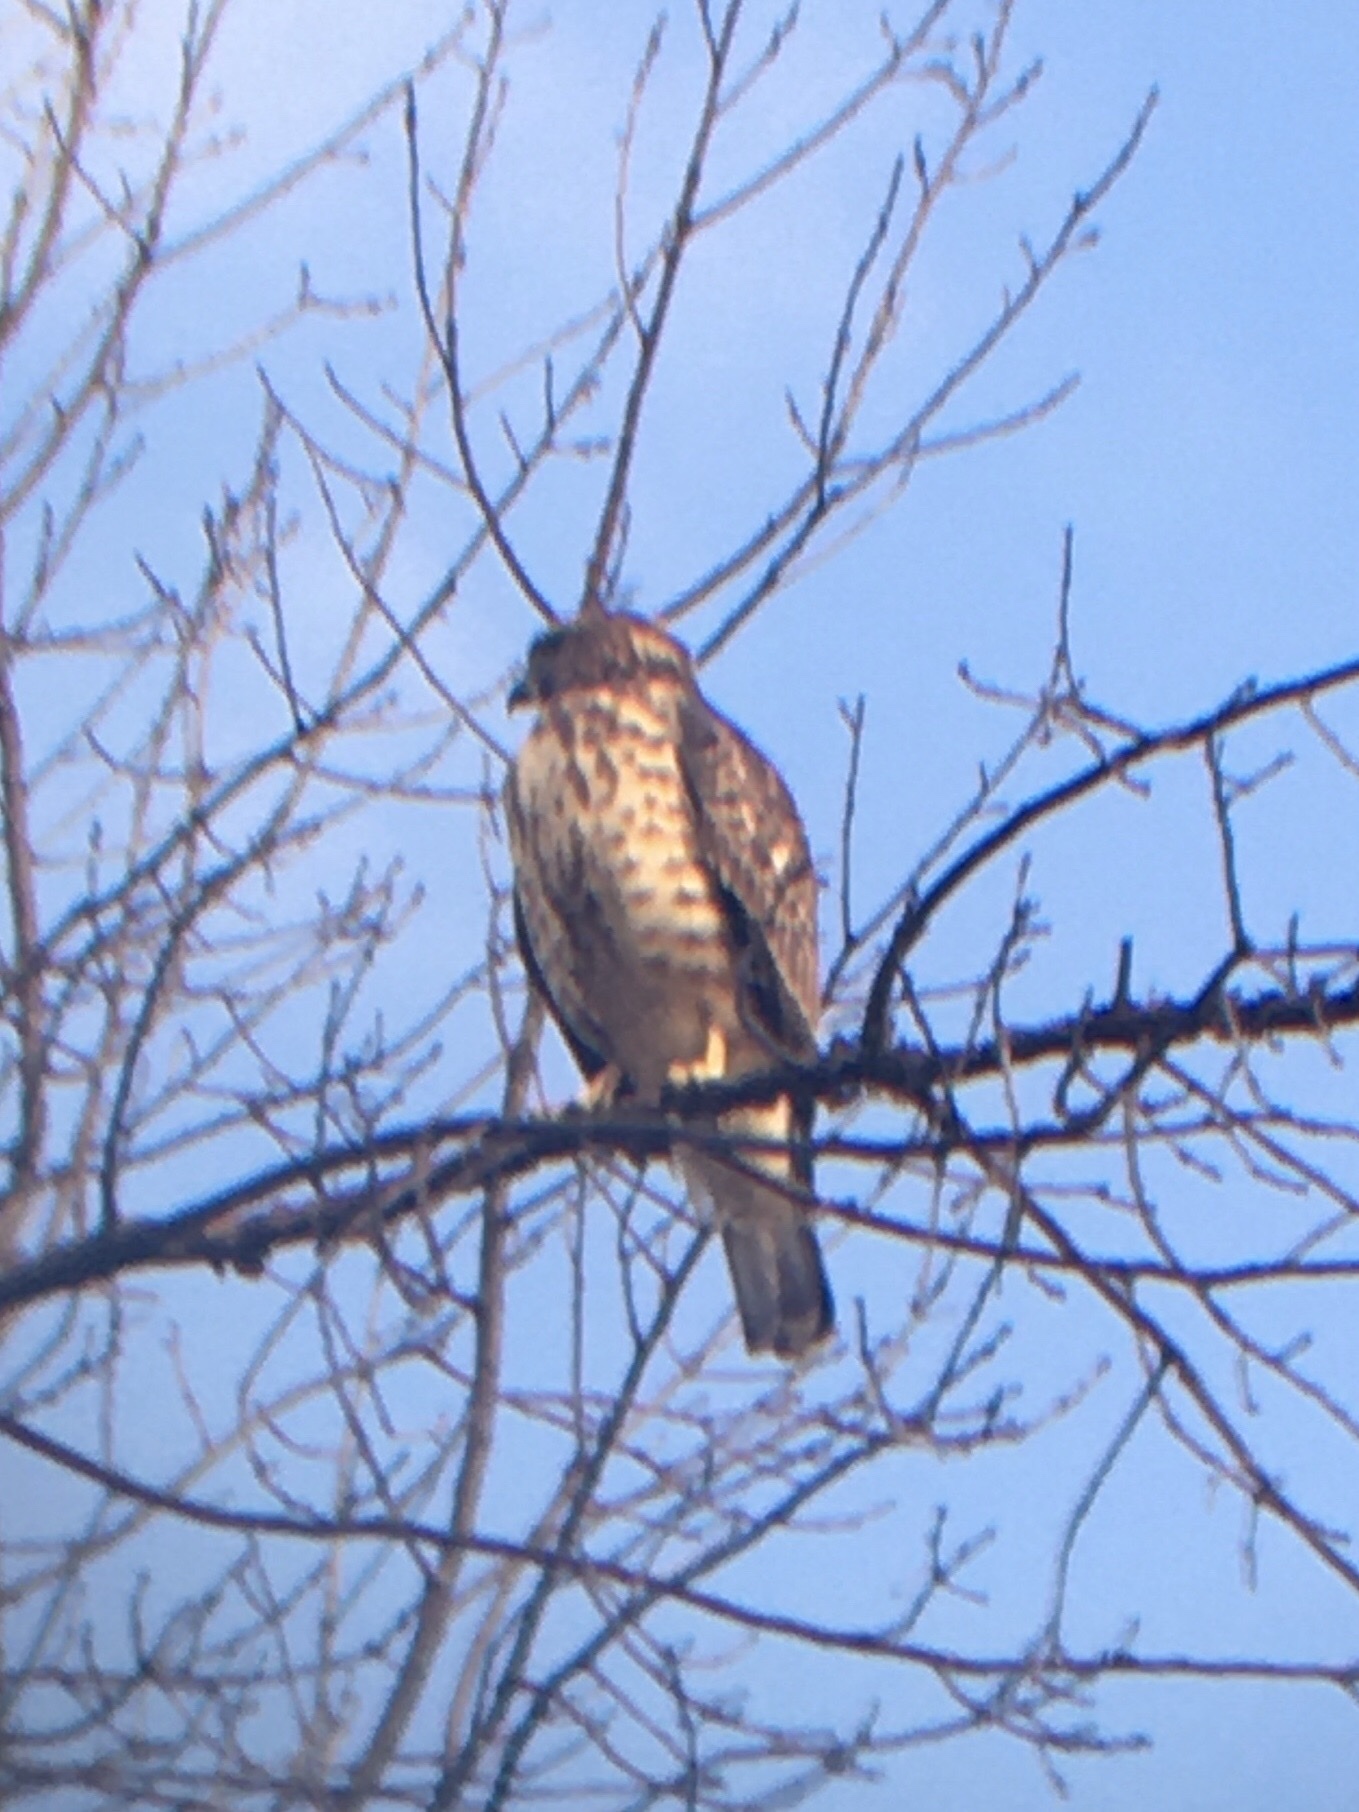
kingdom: Animalia
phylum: Chordata
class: Aves
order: Accipitriformes
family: Accipitridae
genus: Buteo
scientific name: Buteo platypterus
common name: Broad-winged hawk
